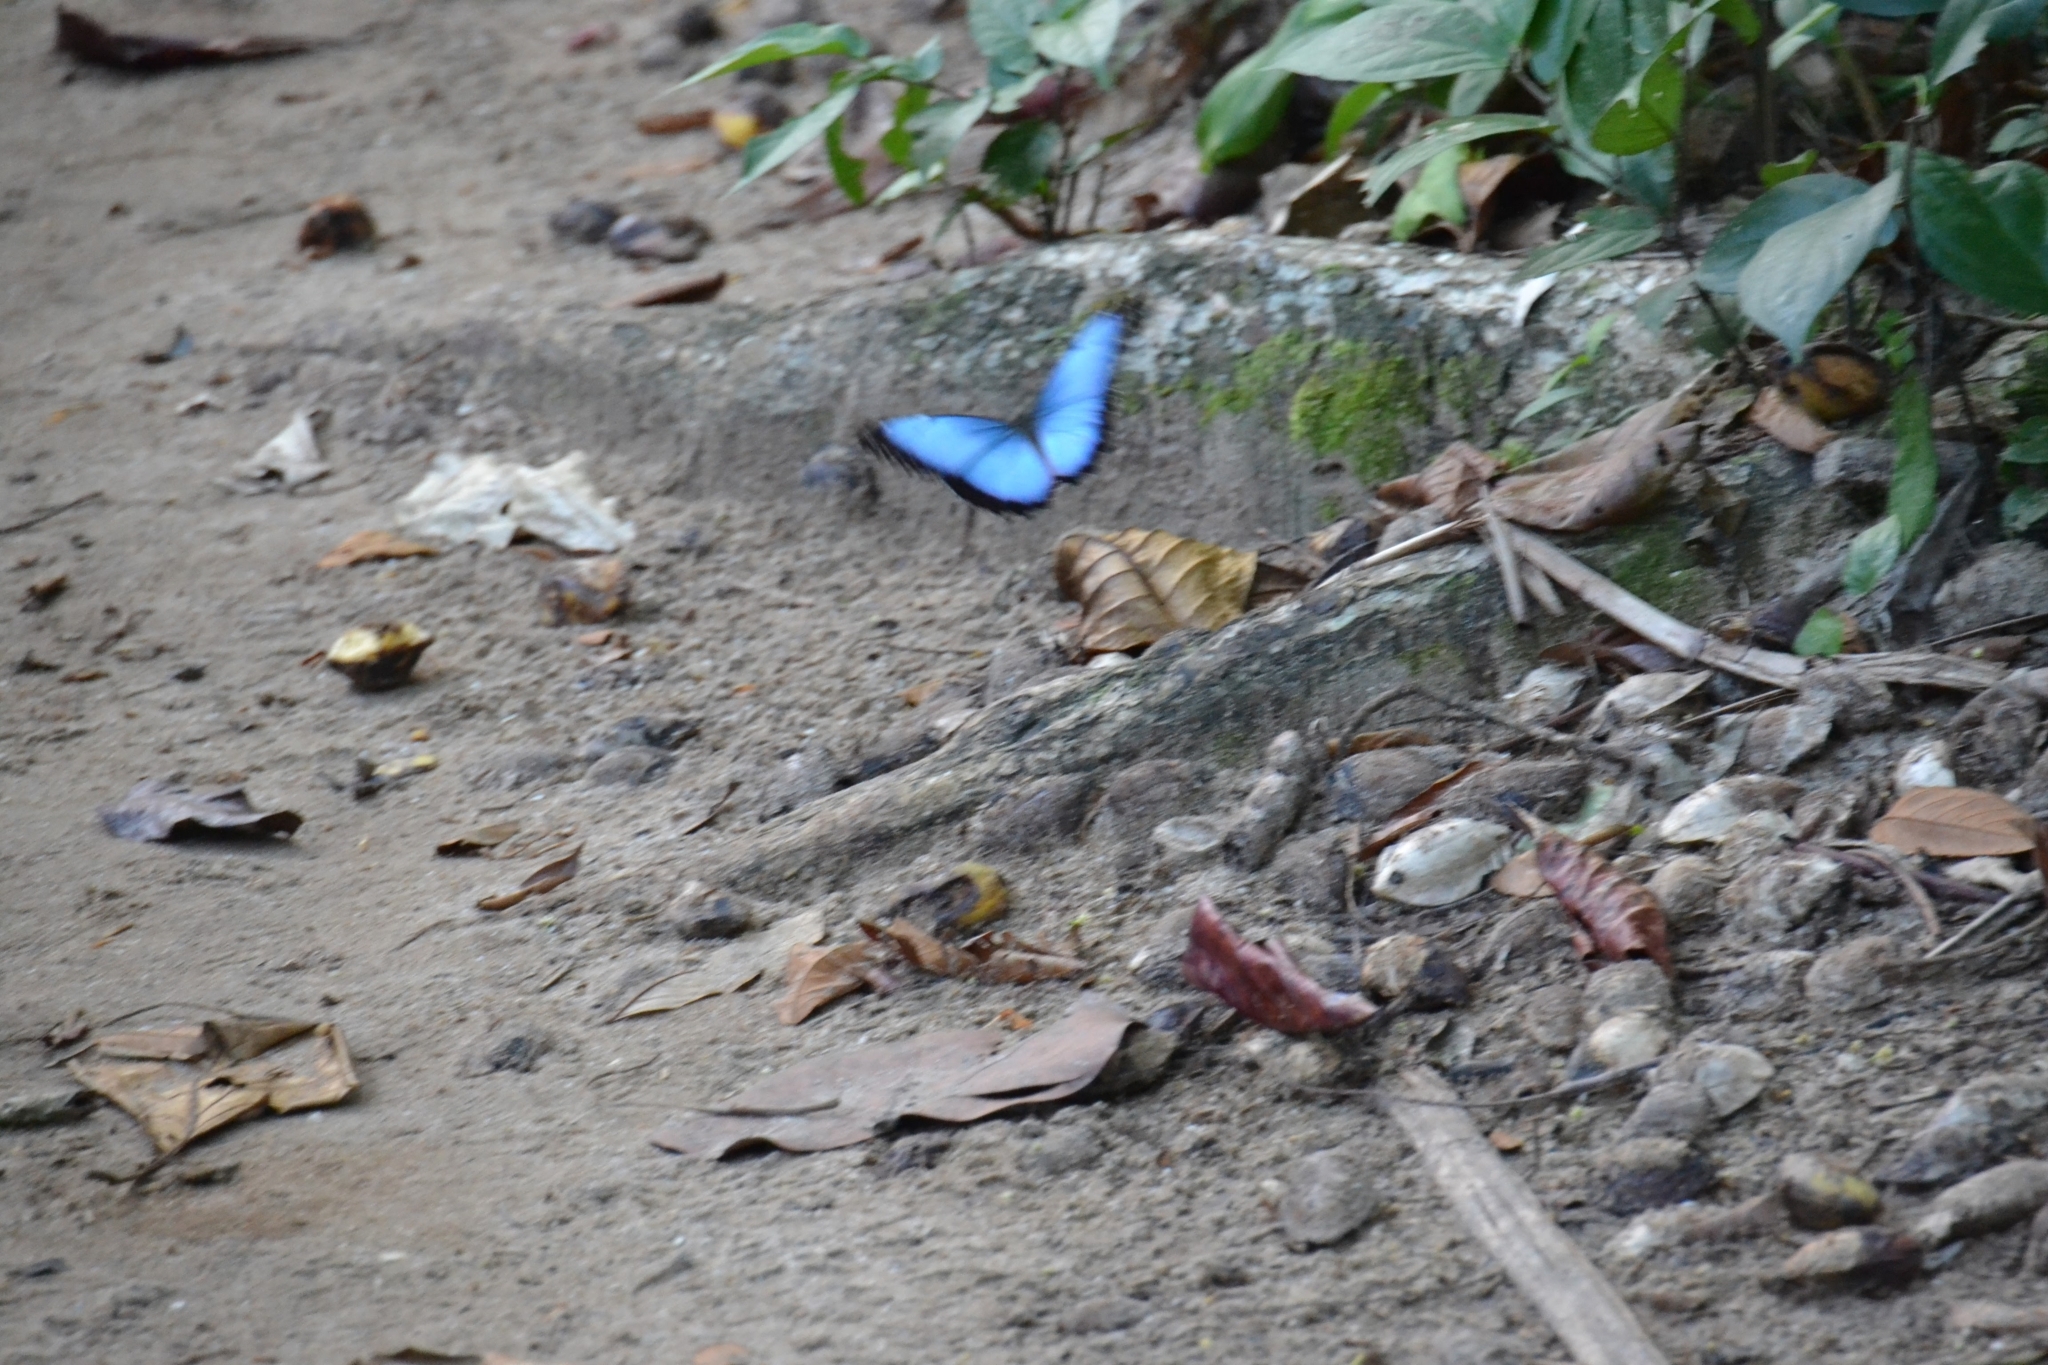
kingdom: Animalia
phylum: Arthropoda
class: Insecta
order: Lepidoptera
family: Nymphalidae
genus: Morpho
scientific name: Morpho helenor
